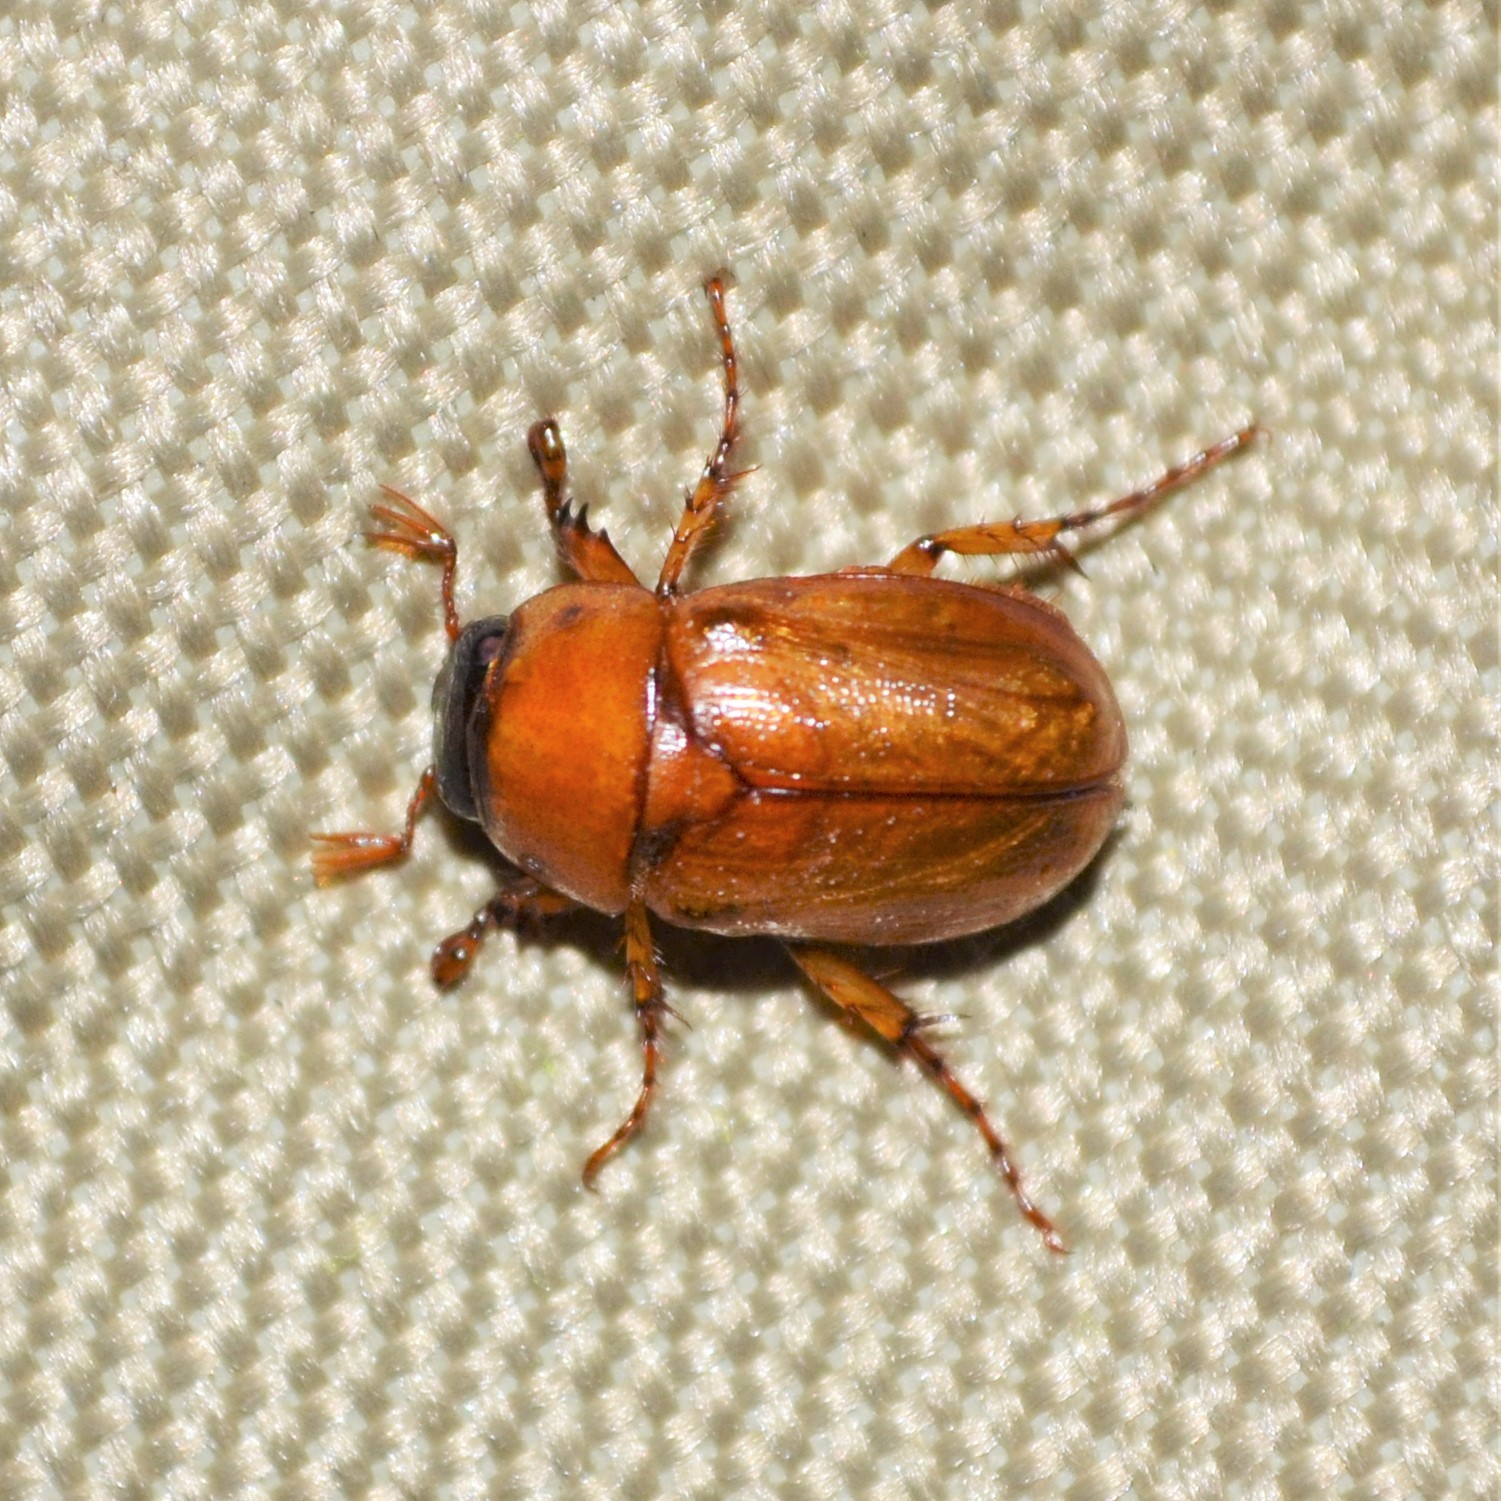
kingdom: Animalia
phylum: Arthropoda
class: Insecta
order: Coleoptera
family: Scarabaeidae
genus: Cyclocephala
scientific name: Cyclocephala lurida
